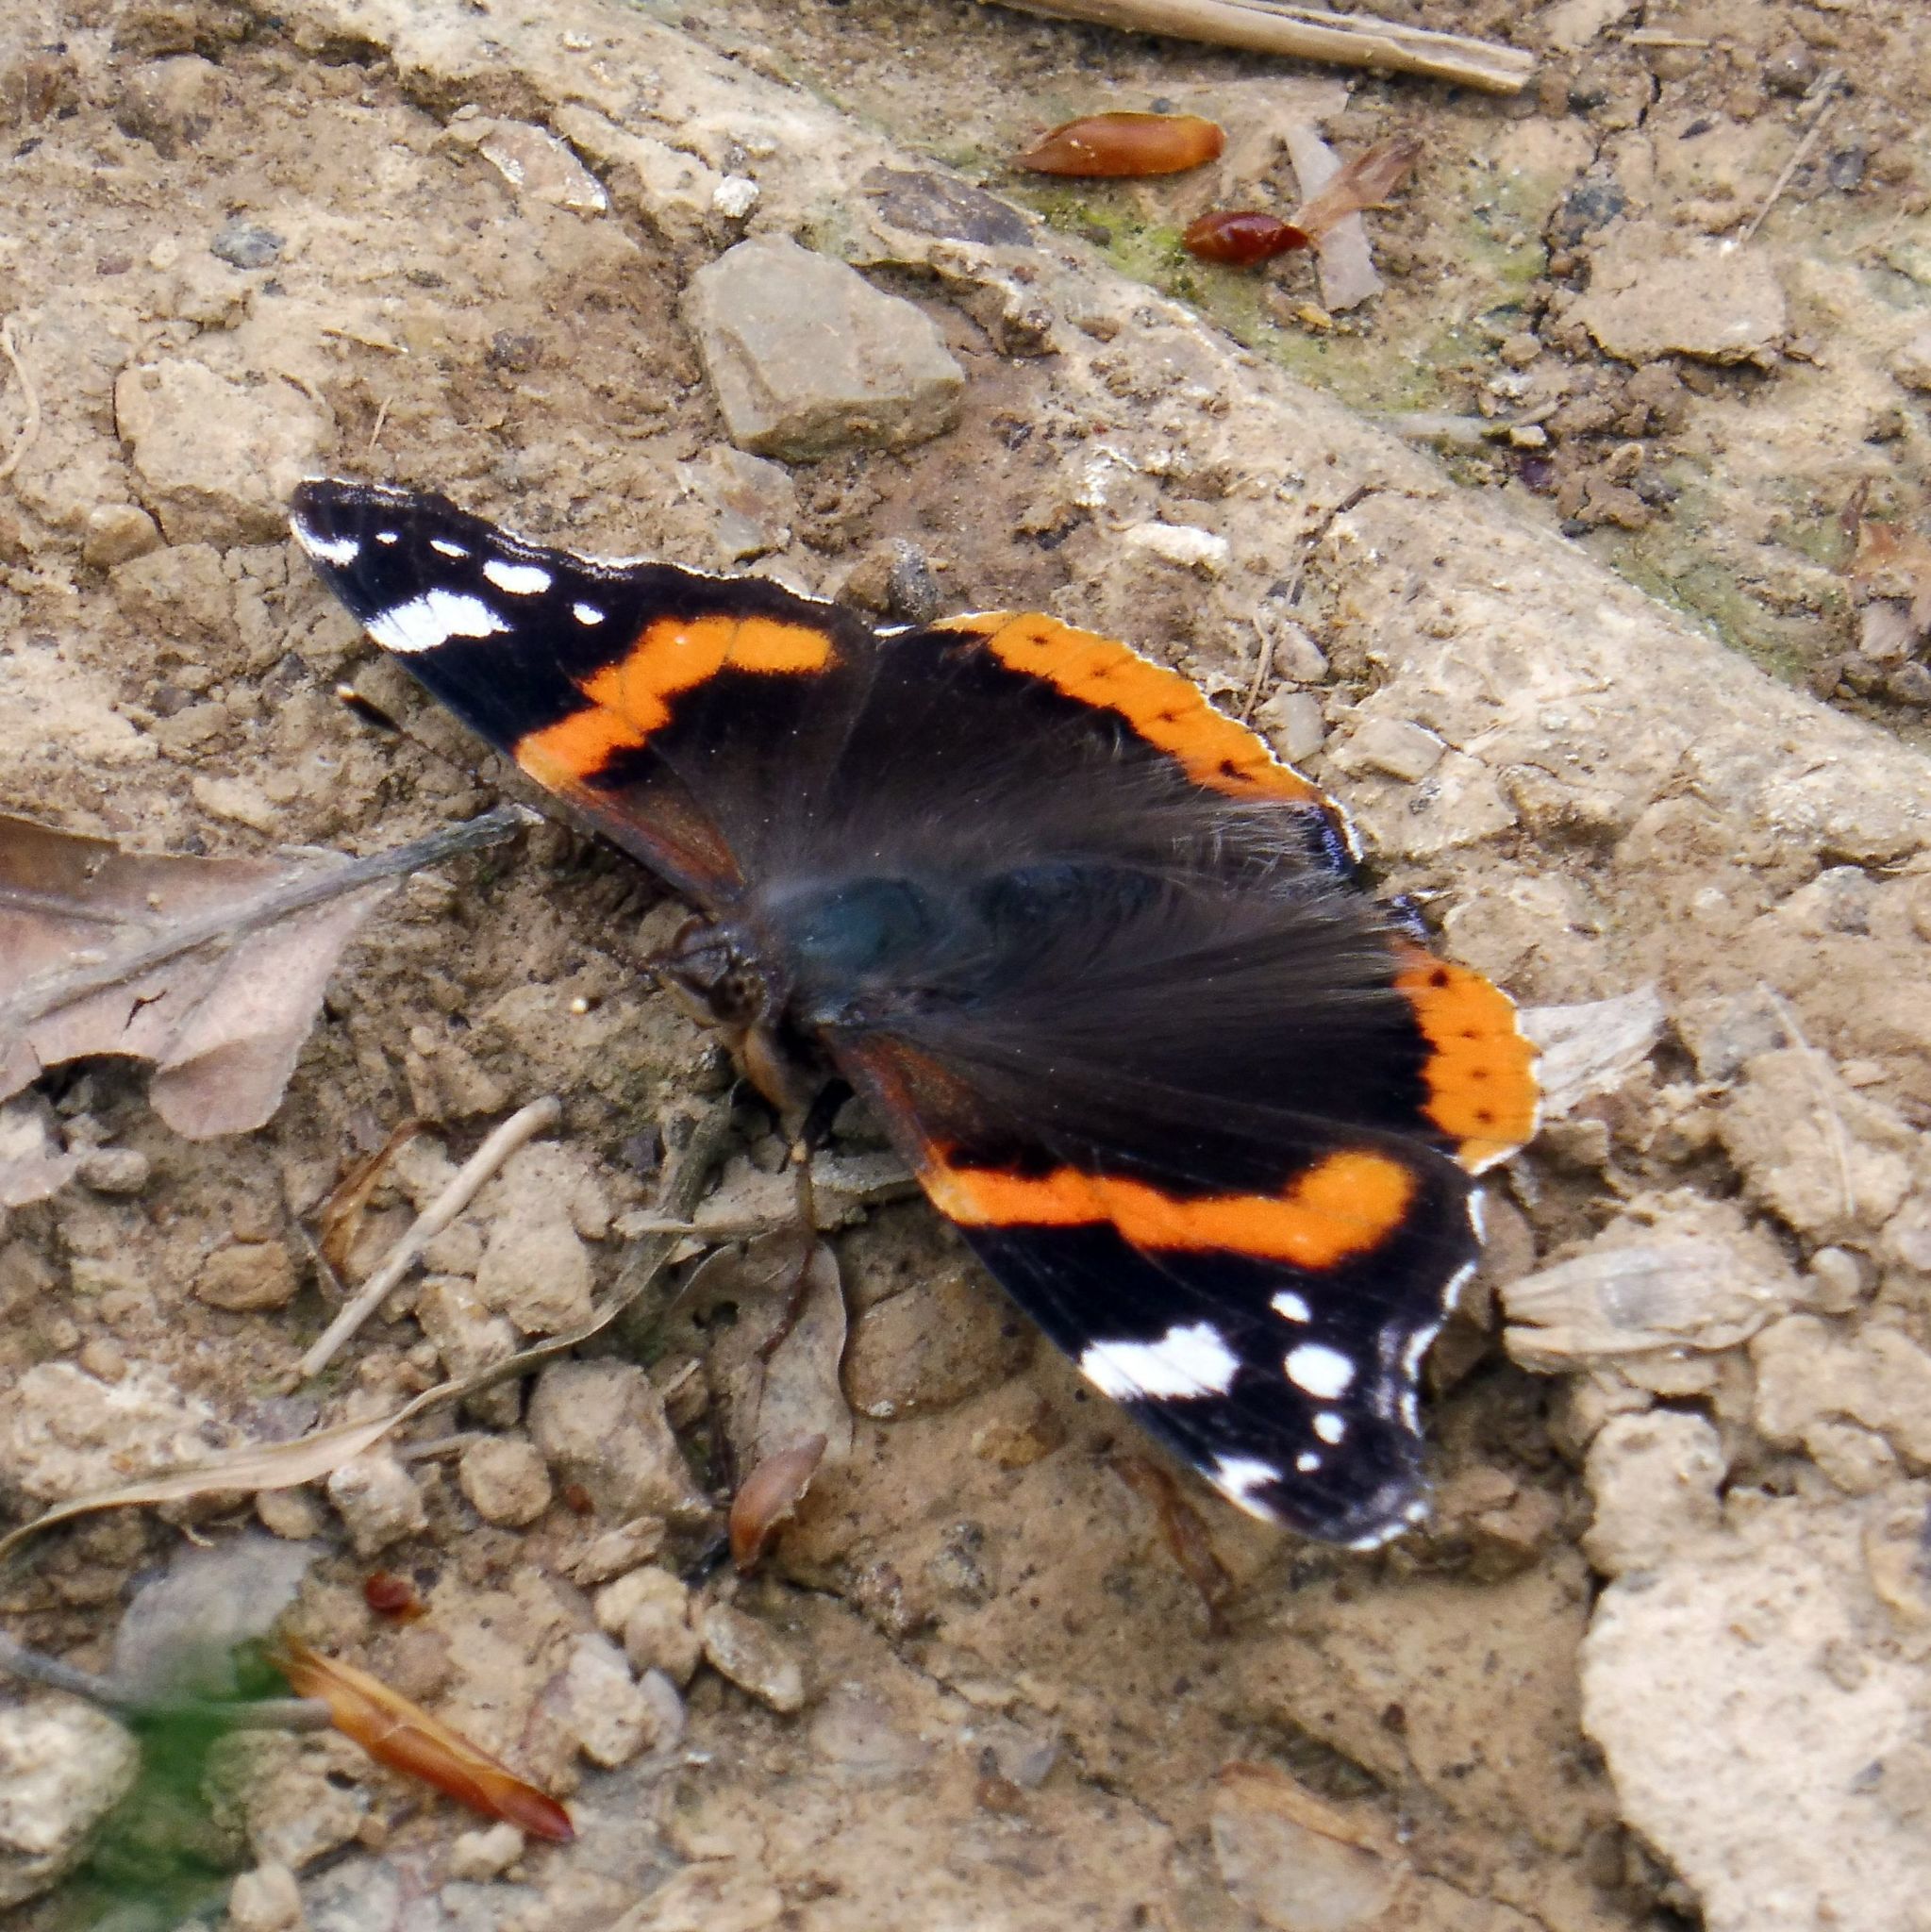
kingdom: Animalia
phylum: Arthropoda
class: Insecta
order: Lepidoptera
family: Nymphalidae
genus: Vanessa
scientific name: Vanessa atalanta
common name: Red admiral
